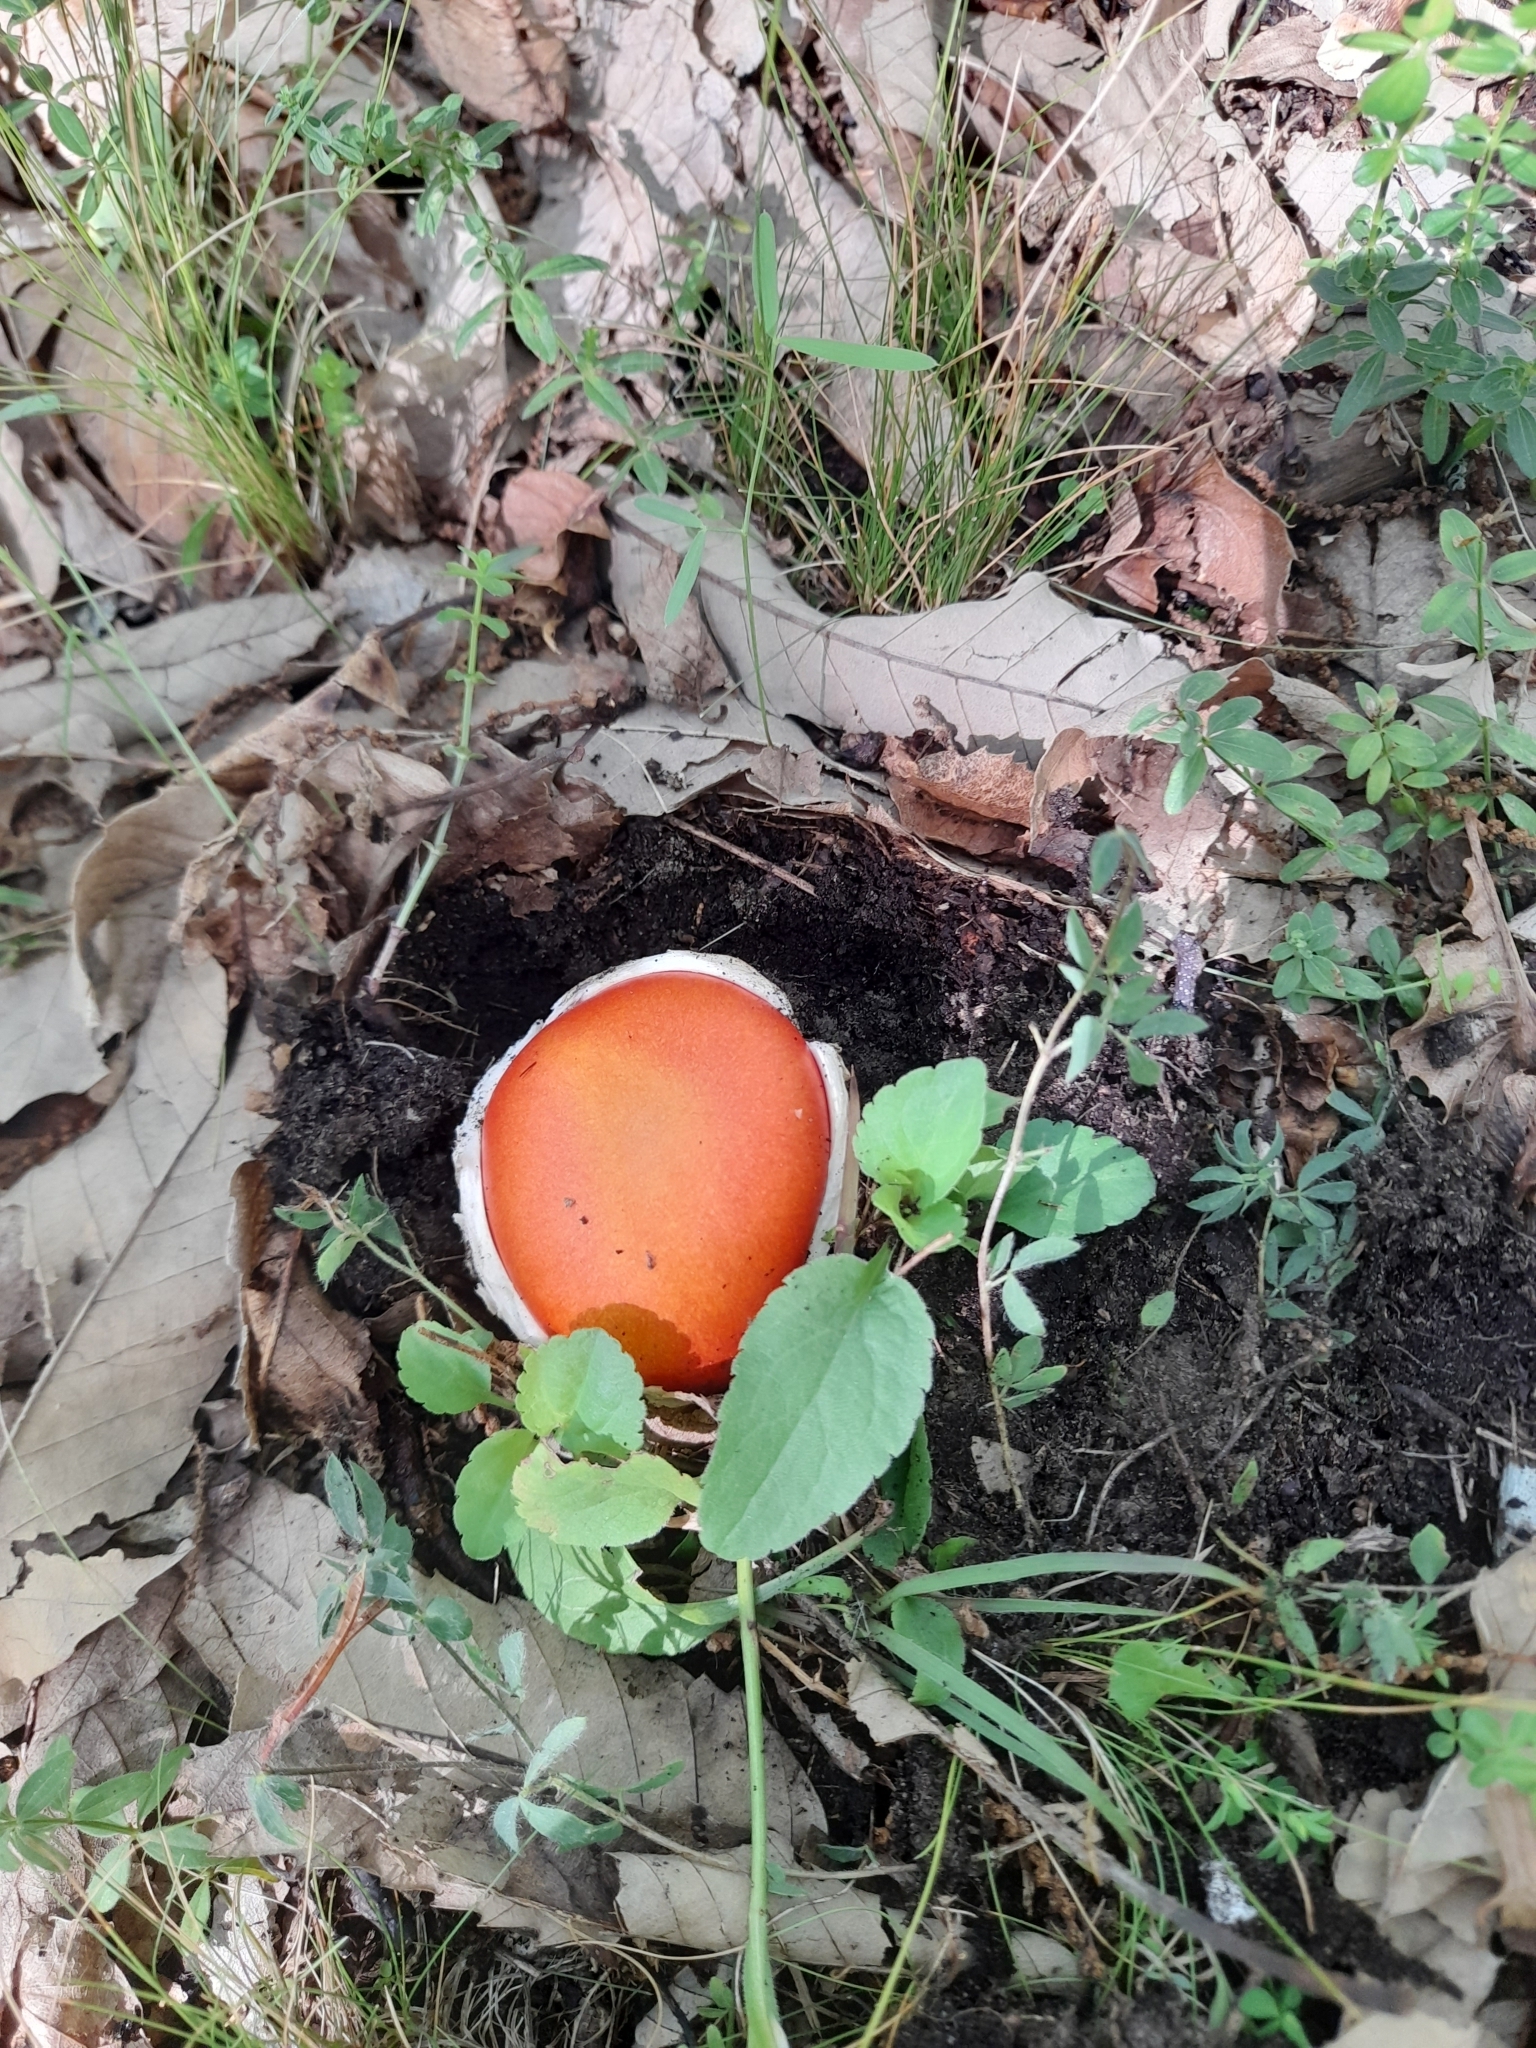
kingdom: Fungi
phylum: Basidiomycota
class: Agaricomycetes
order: Agaricales
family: Amanitaceae
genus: Amanita
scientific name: Amanita caesarea
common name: Caesar's amanita
